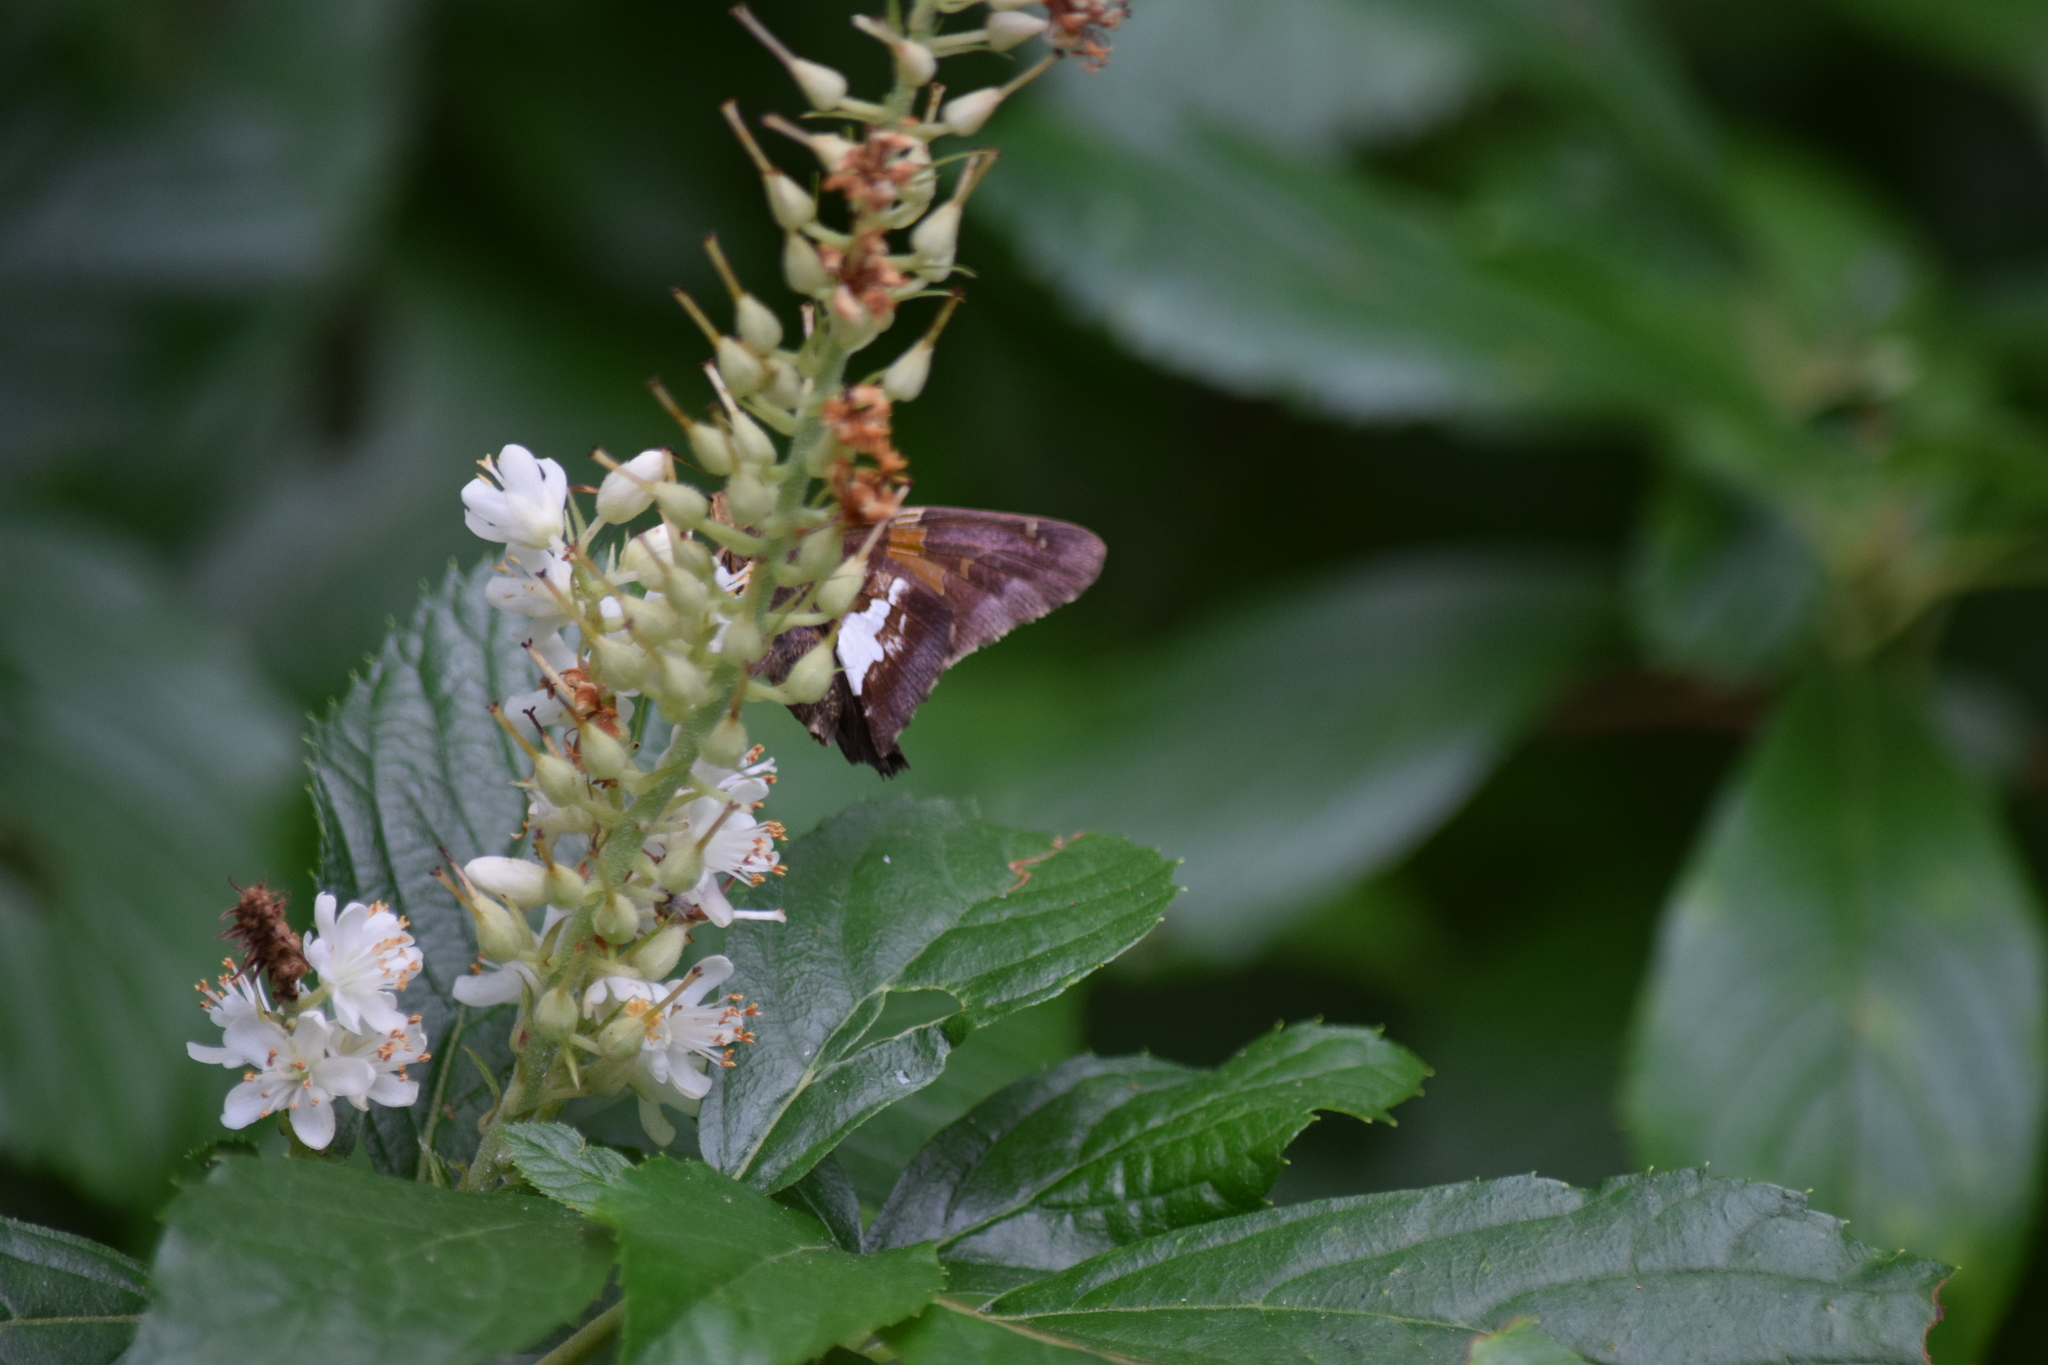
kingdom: Animalia
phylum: Arthropoda
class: Insecta
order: Lepidoptera
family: Hesperiidae
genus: Epargyreus
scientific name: Epargyreus clarus
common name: Silver-spotted skipper
